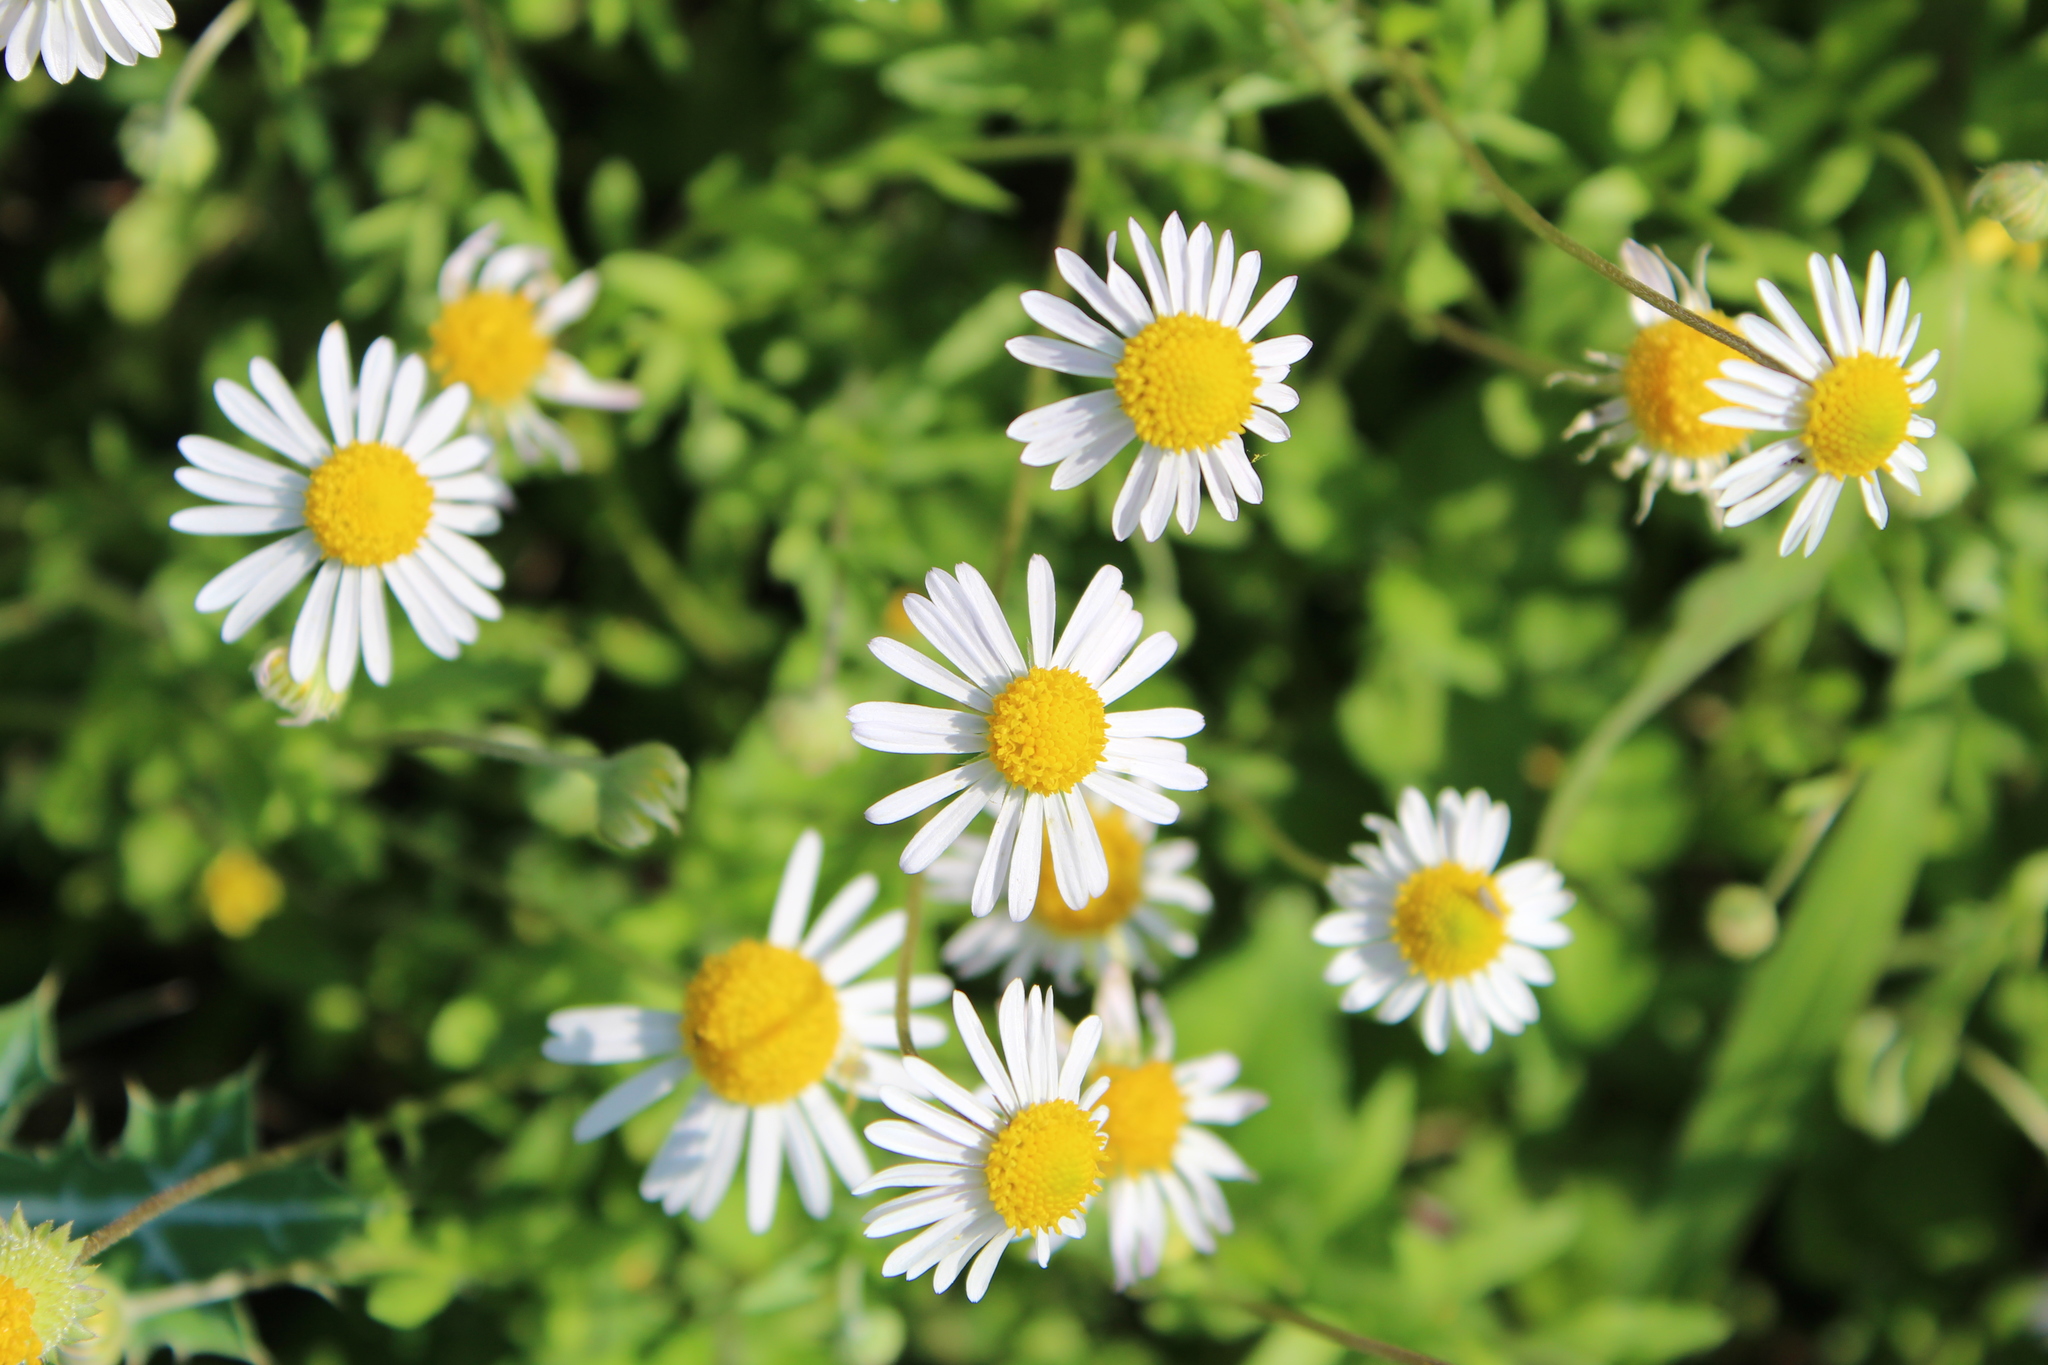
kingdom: Plantae
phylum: Tracheophyta
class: Magnoliopsida
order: Asterales
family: Asteraceae
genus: Dichaetophora
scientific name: Dichaetophora campestris
